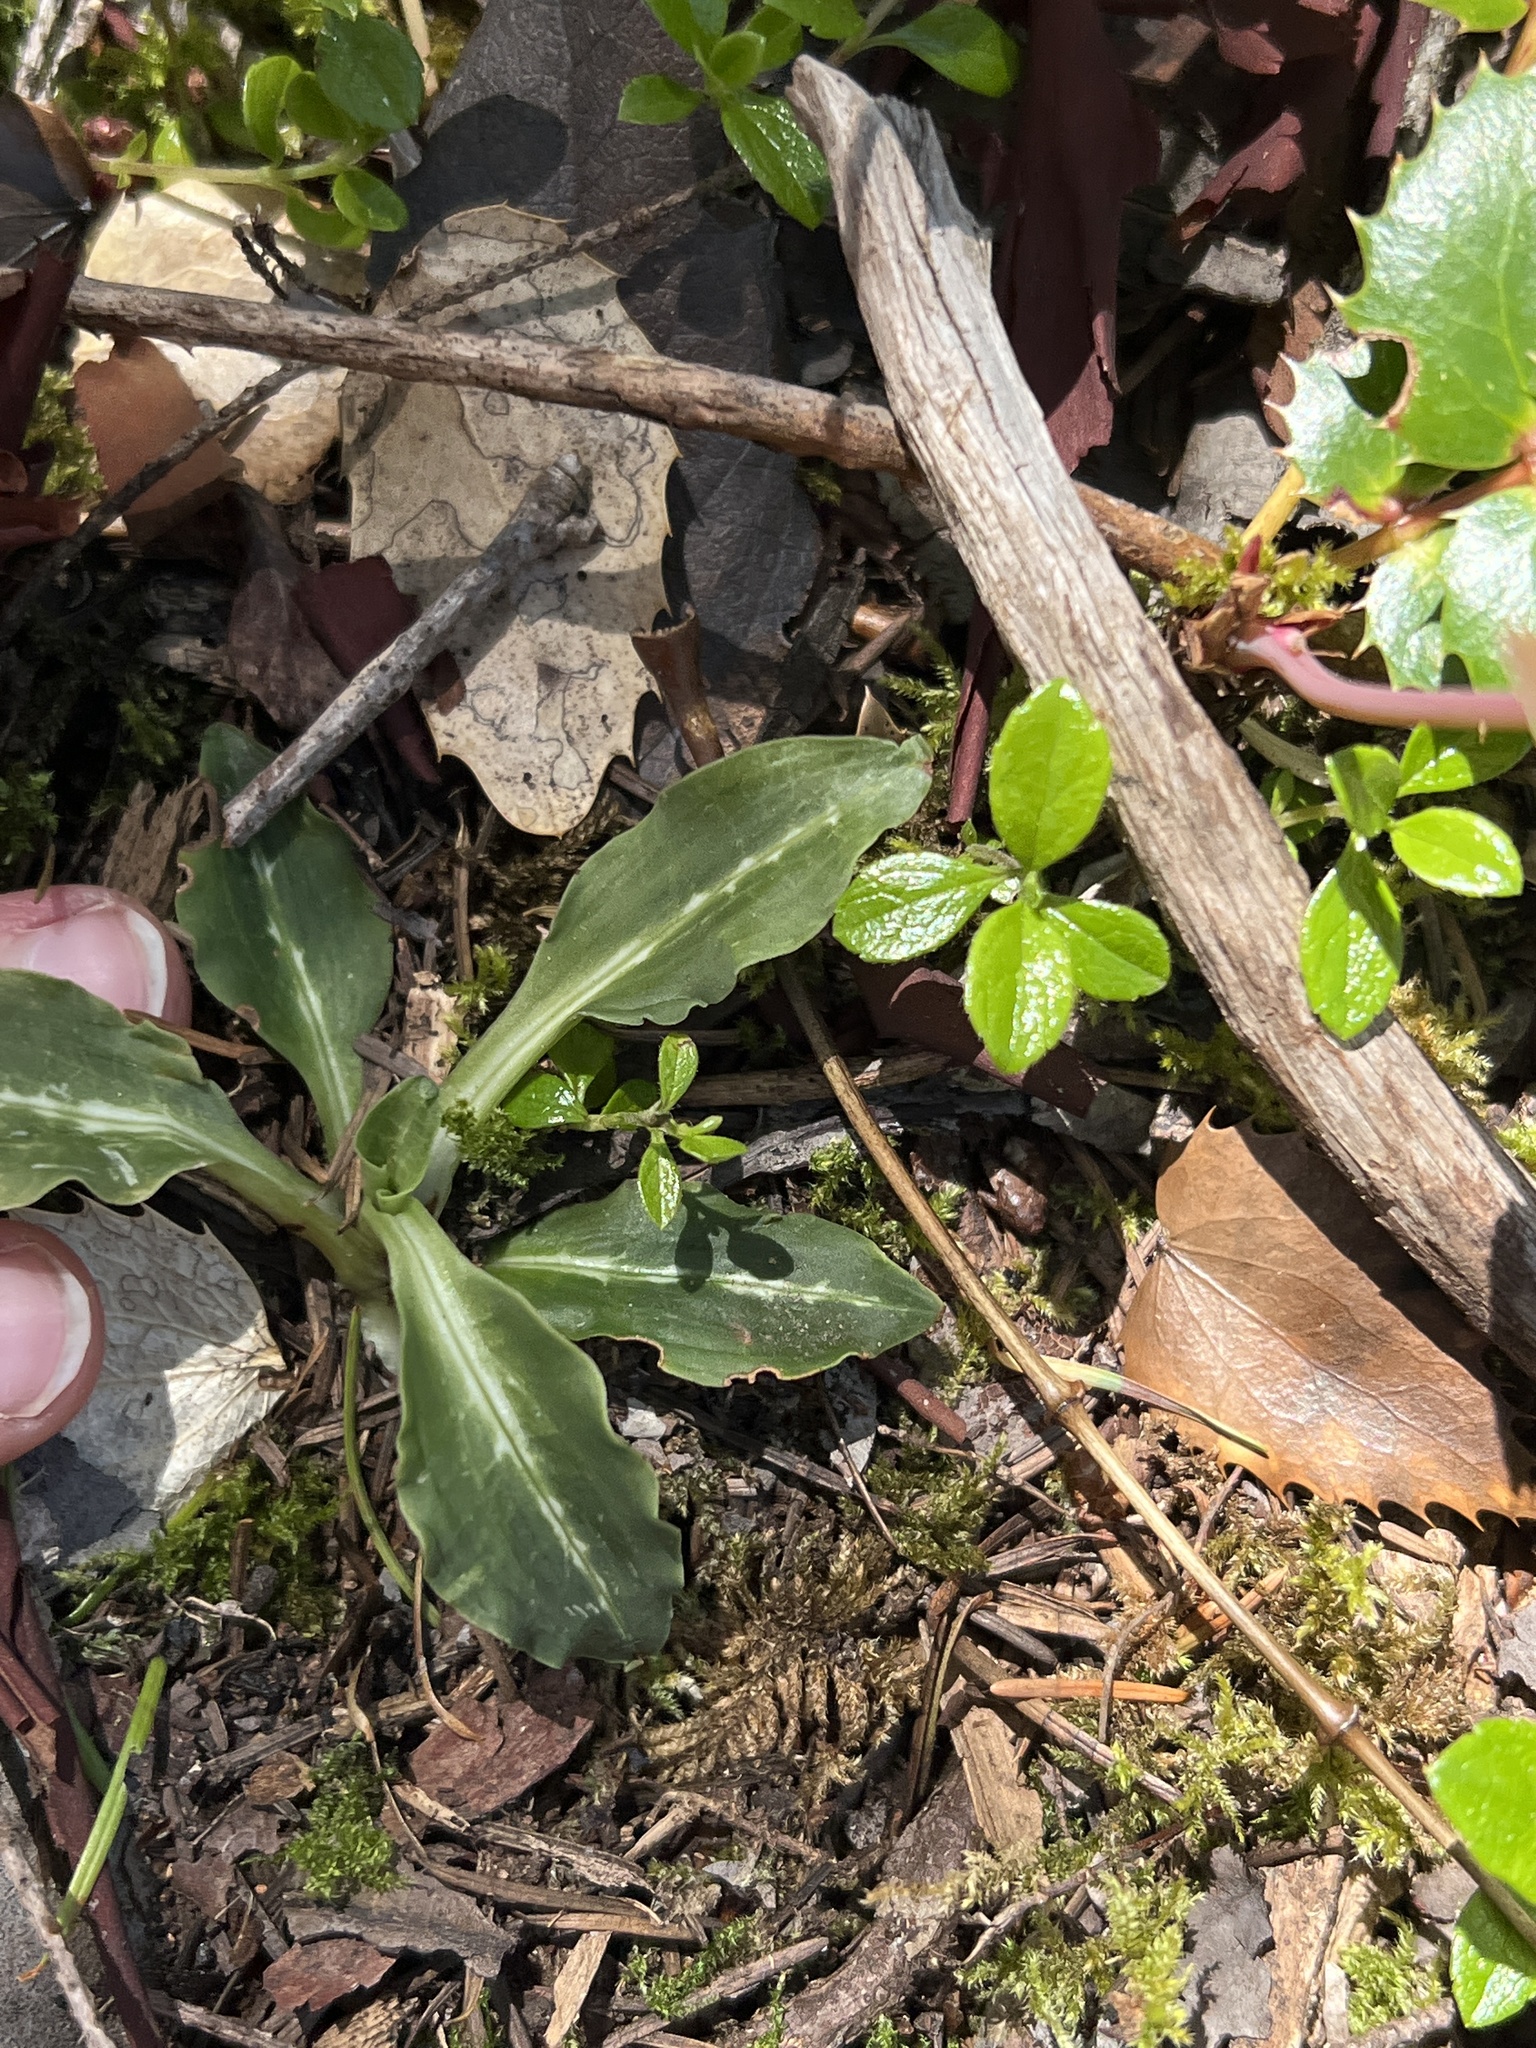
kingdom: Plantae
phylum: Tracheophyta
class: Liliopsida
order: Asparagales
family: Orchidaceae
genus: Goodyera
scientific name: Goodyera oblongifolia
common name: Giant rattlesnake-plantain
